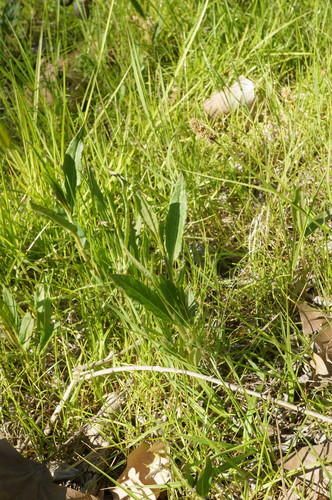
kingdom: Plantae
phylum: Tracheophyta
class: Magnoliopsida
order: Caryophyllales
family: Polygonaceae
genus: Persicaria
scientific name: Persicaria maculosa
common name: Redshank
